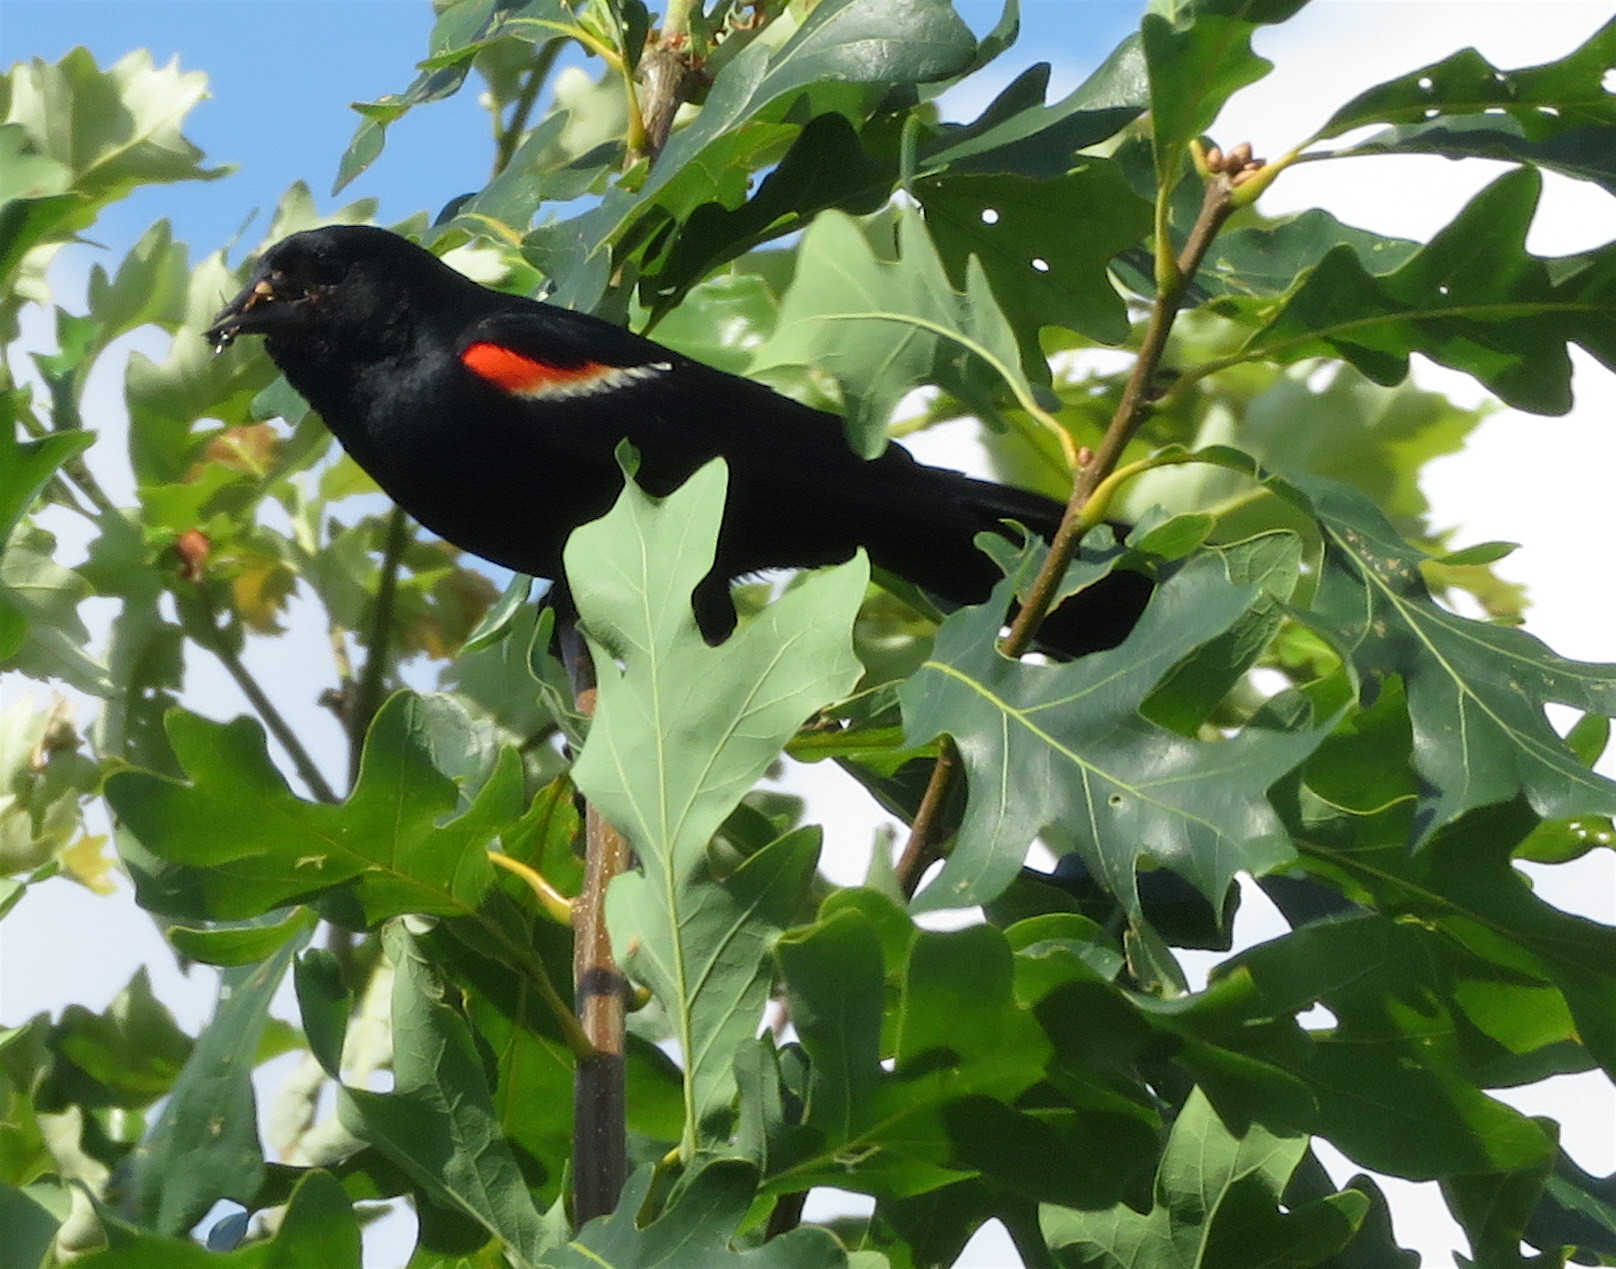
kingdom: Animalia
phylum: Chordata
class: Aves
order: Passeriformes
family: Icteridae
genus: Agelaius
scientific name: Agelaius phoeniceus
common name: Red-winged blackbird
